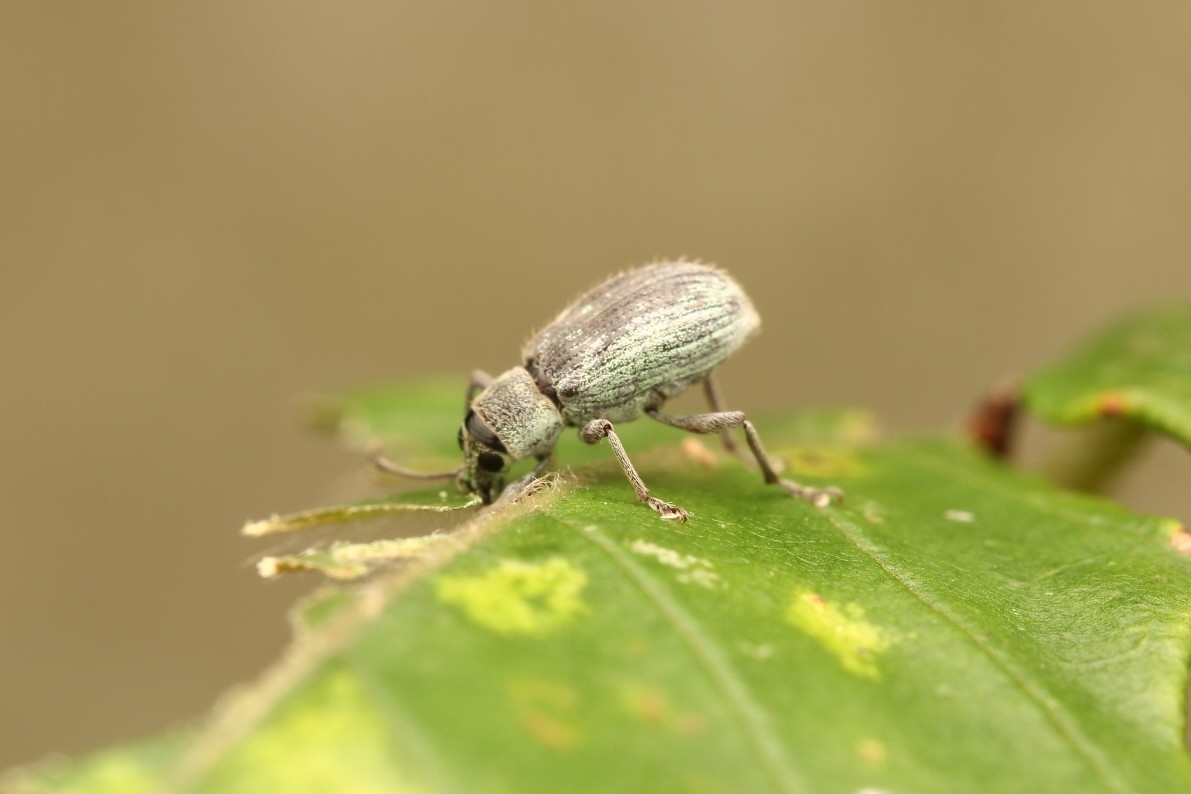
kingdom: Animalia
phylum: Arthropoda
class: Insecta
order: Coleoptera
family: Curculionidae
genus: Cyrtepistomus
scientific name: Cyrtepistomus castaneus
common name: Weevil
